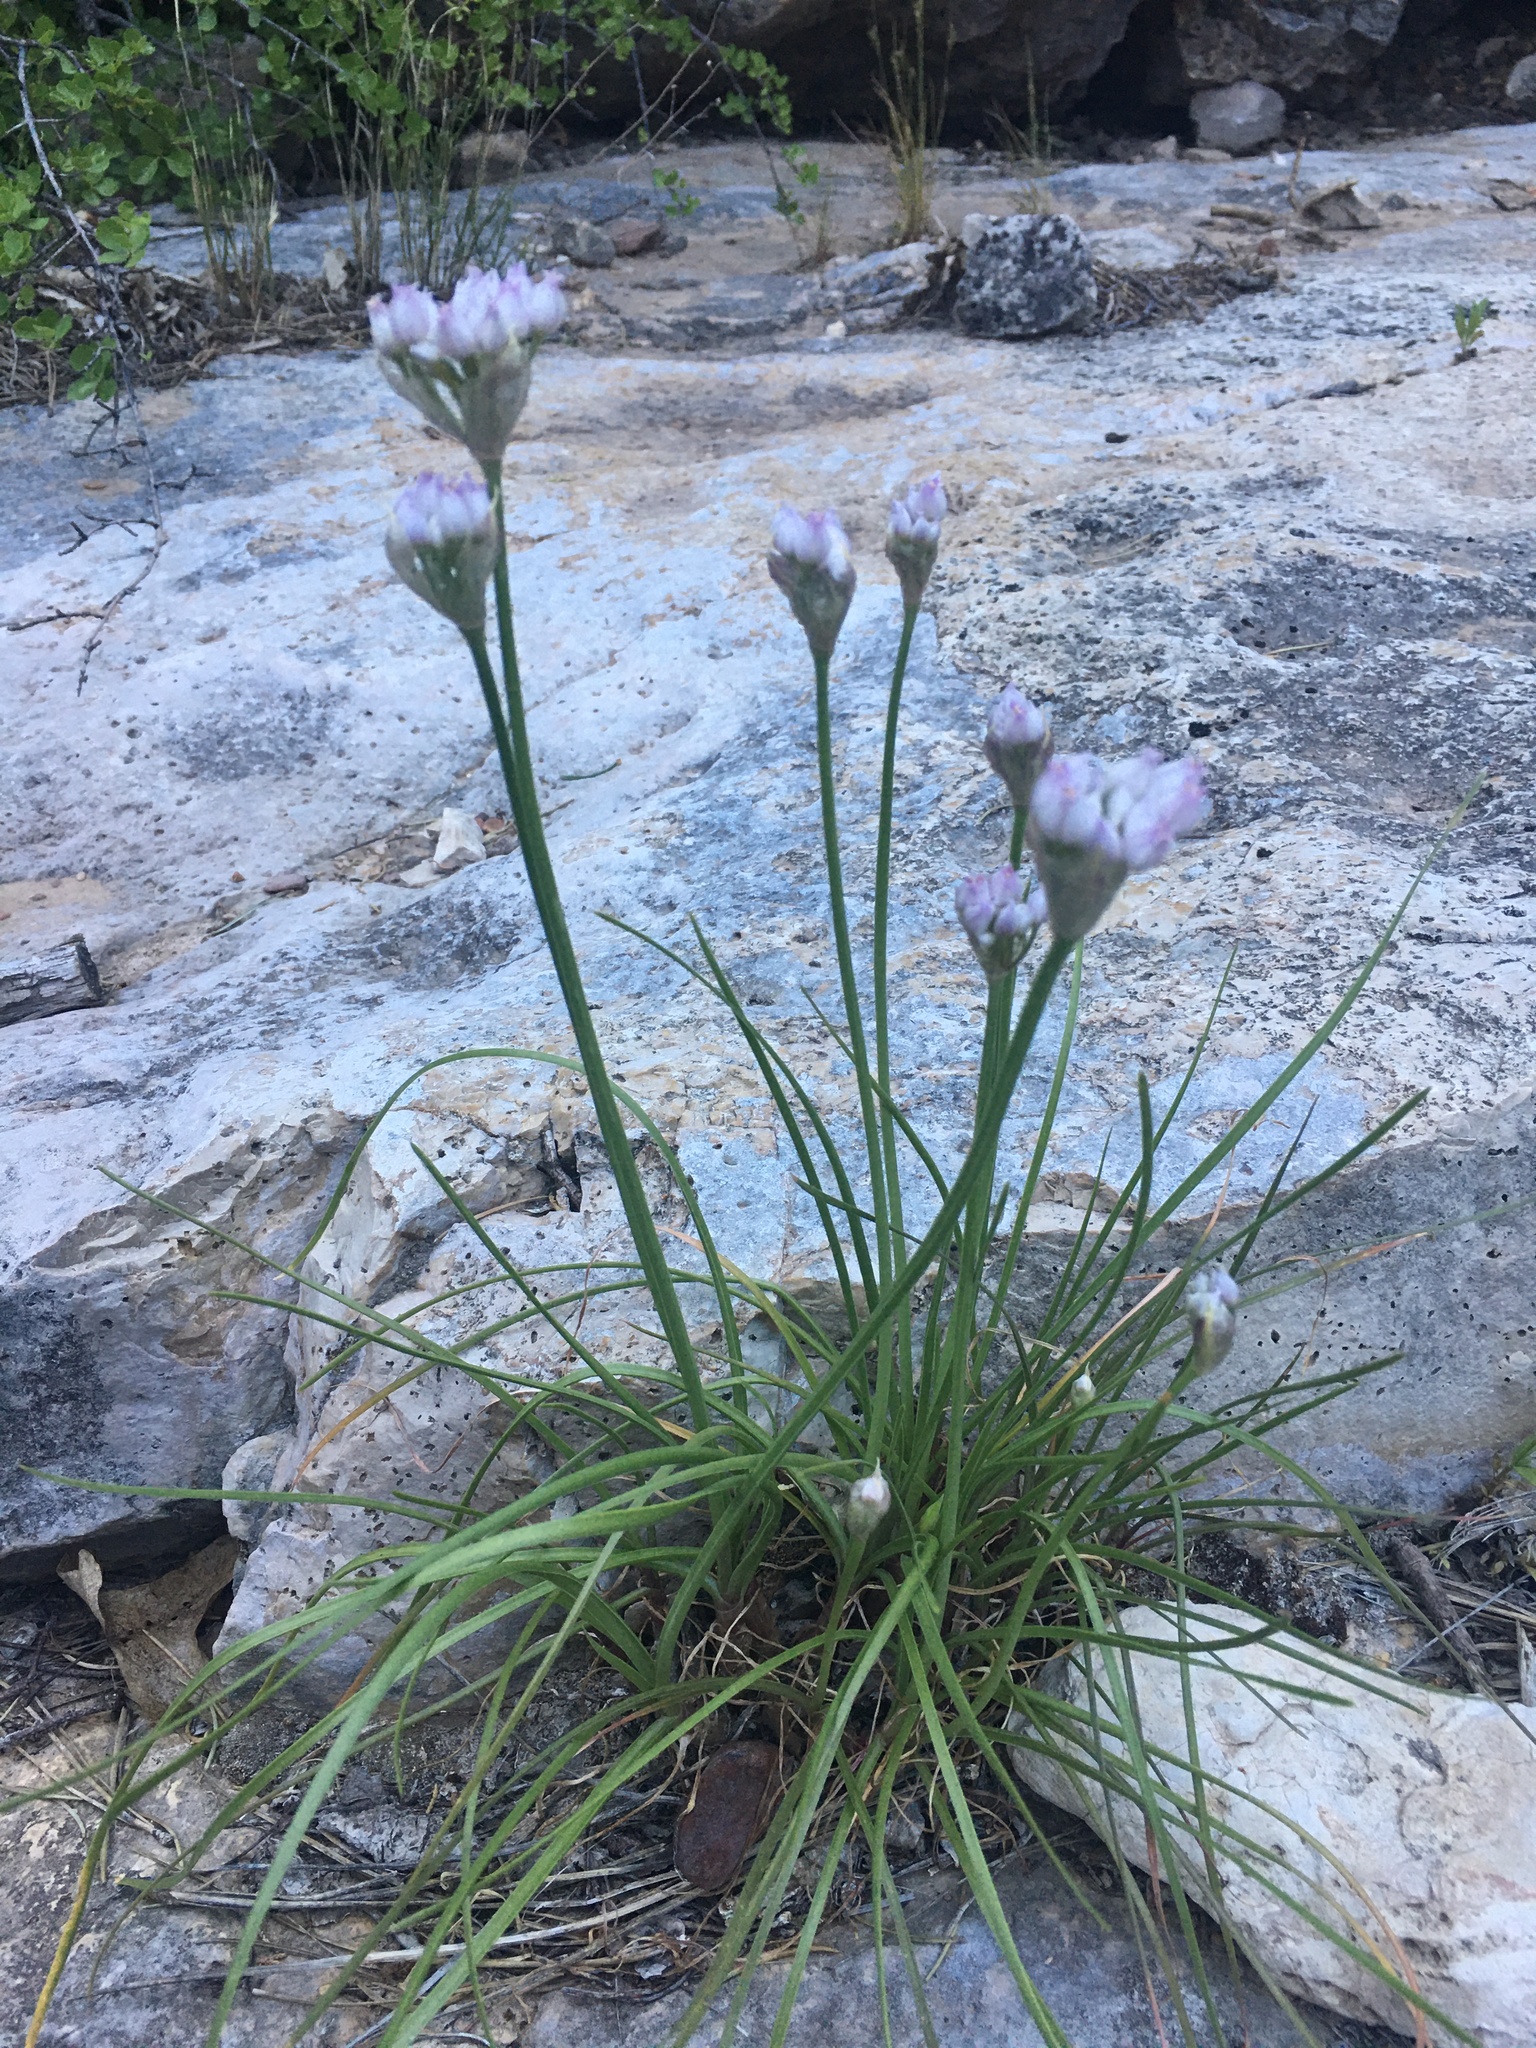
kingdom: Plantae
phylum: Tracheophyta
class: Liliopsida
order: Asparagales
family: Amaryllidaceae
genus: Allium
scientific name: Allium geyeri
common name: Geyer's onion
